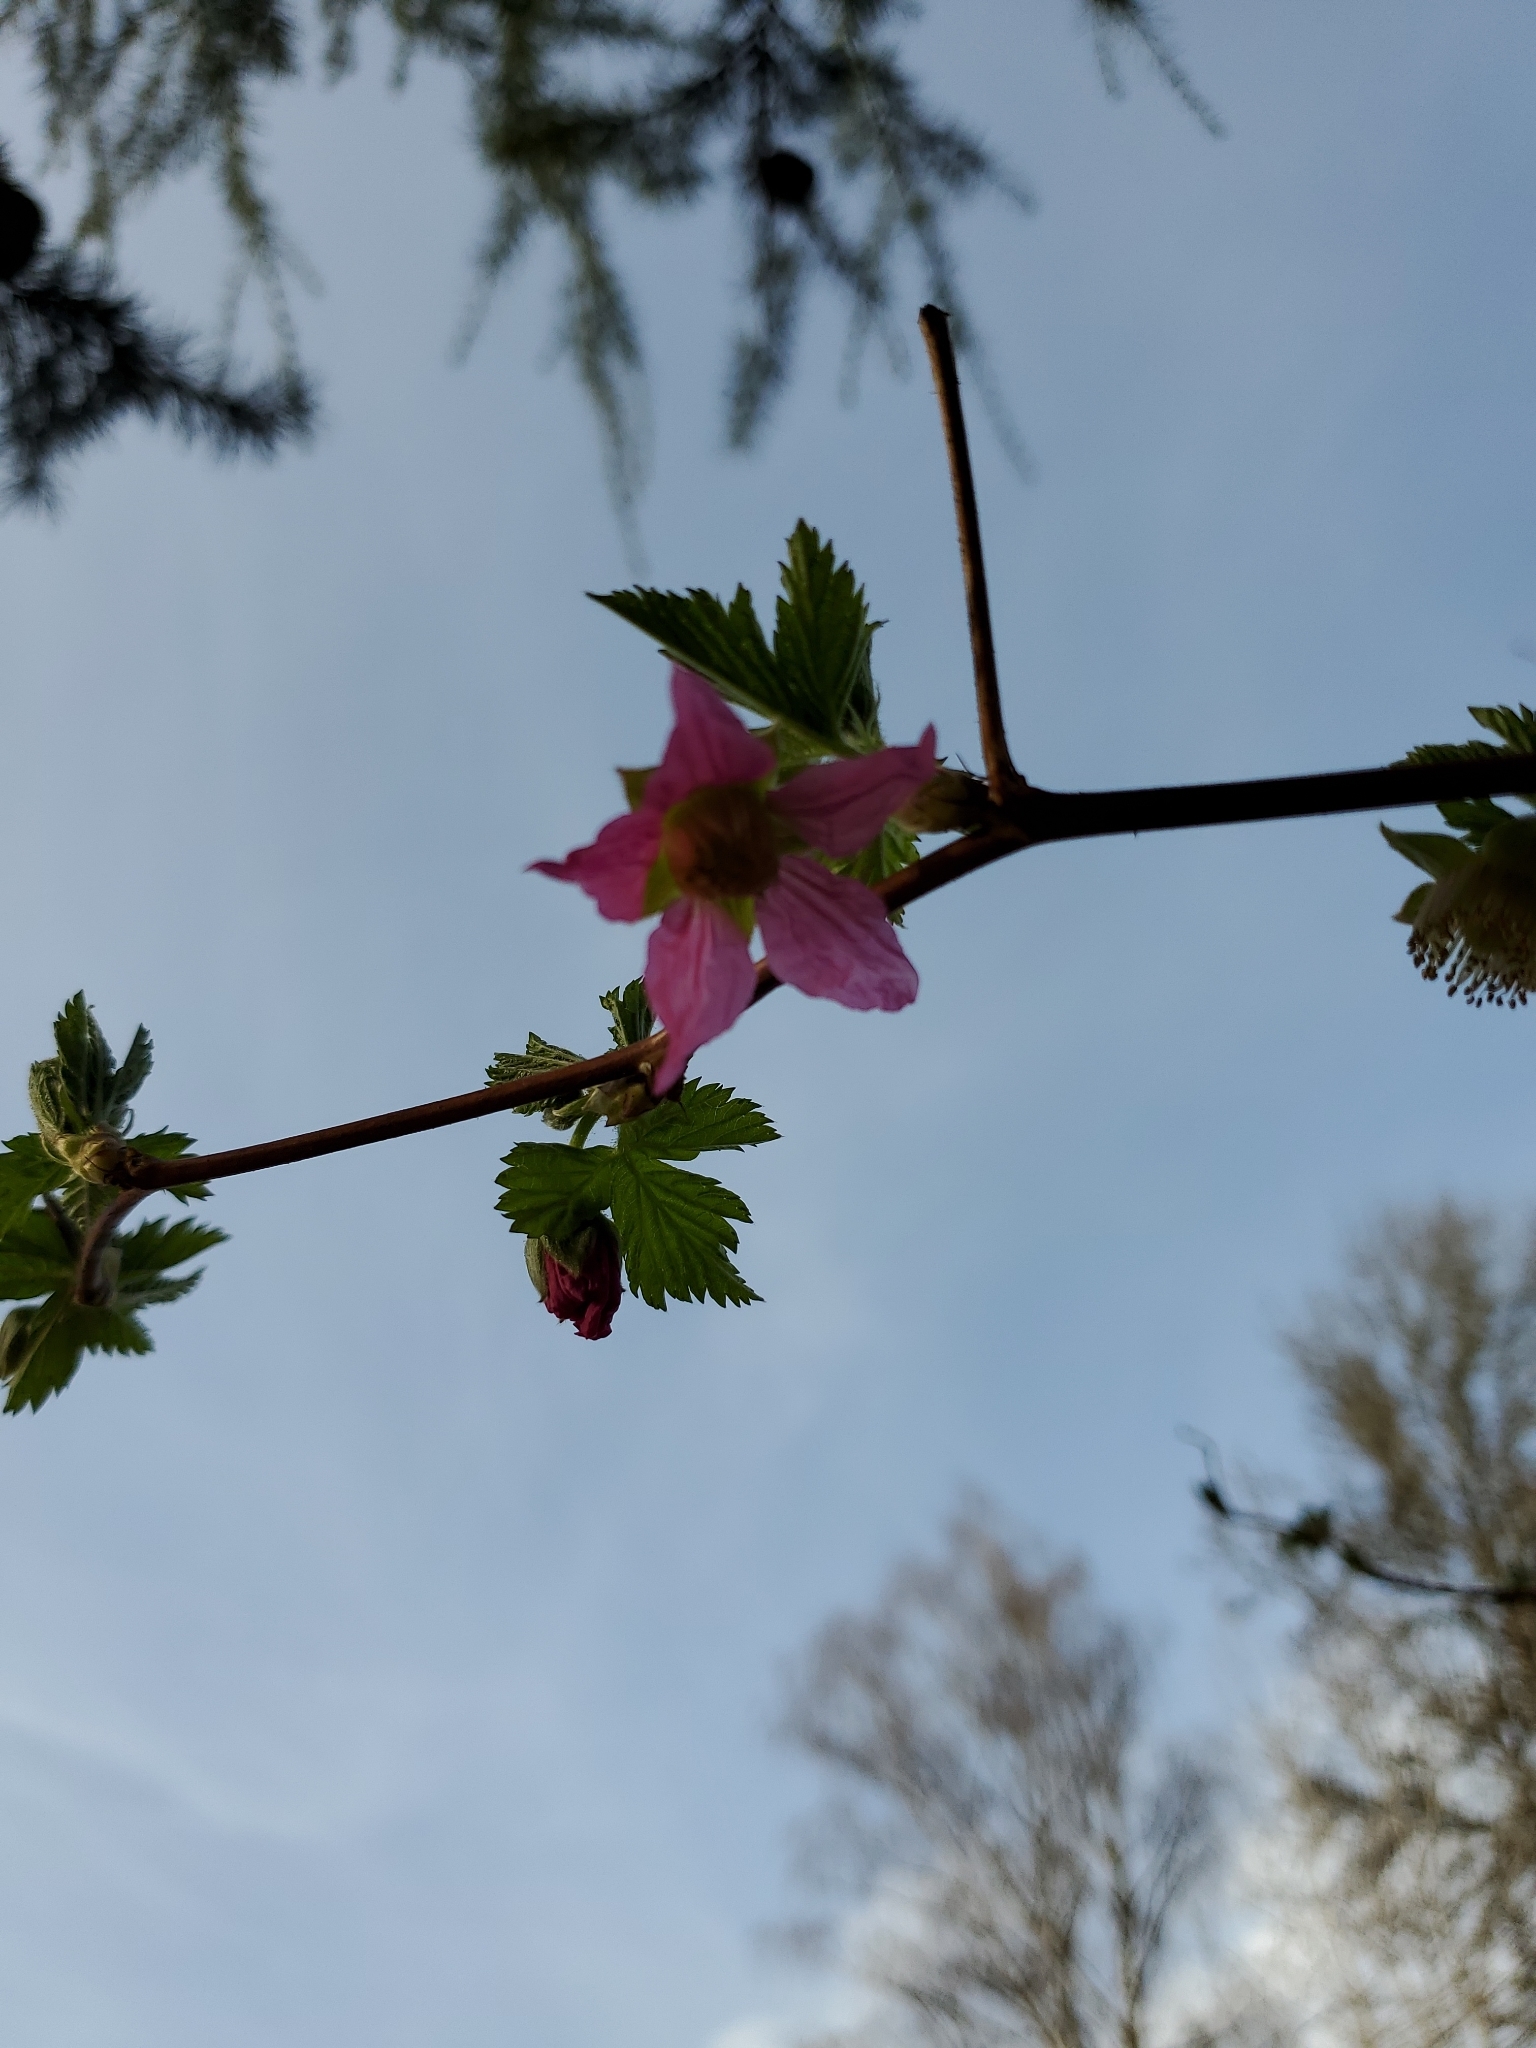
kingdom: Plantae
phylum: Tracheophyta
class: Magnoliopsida
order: Rosales
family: Rosaceae
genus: Rubus
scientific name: Rubus spectabilis
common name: Salmonberry
